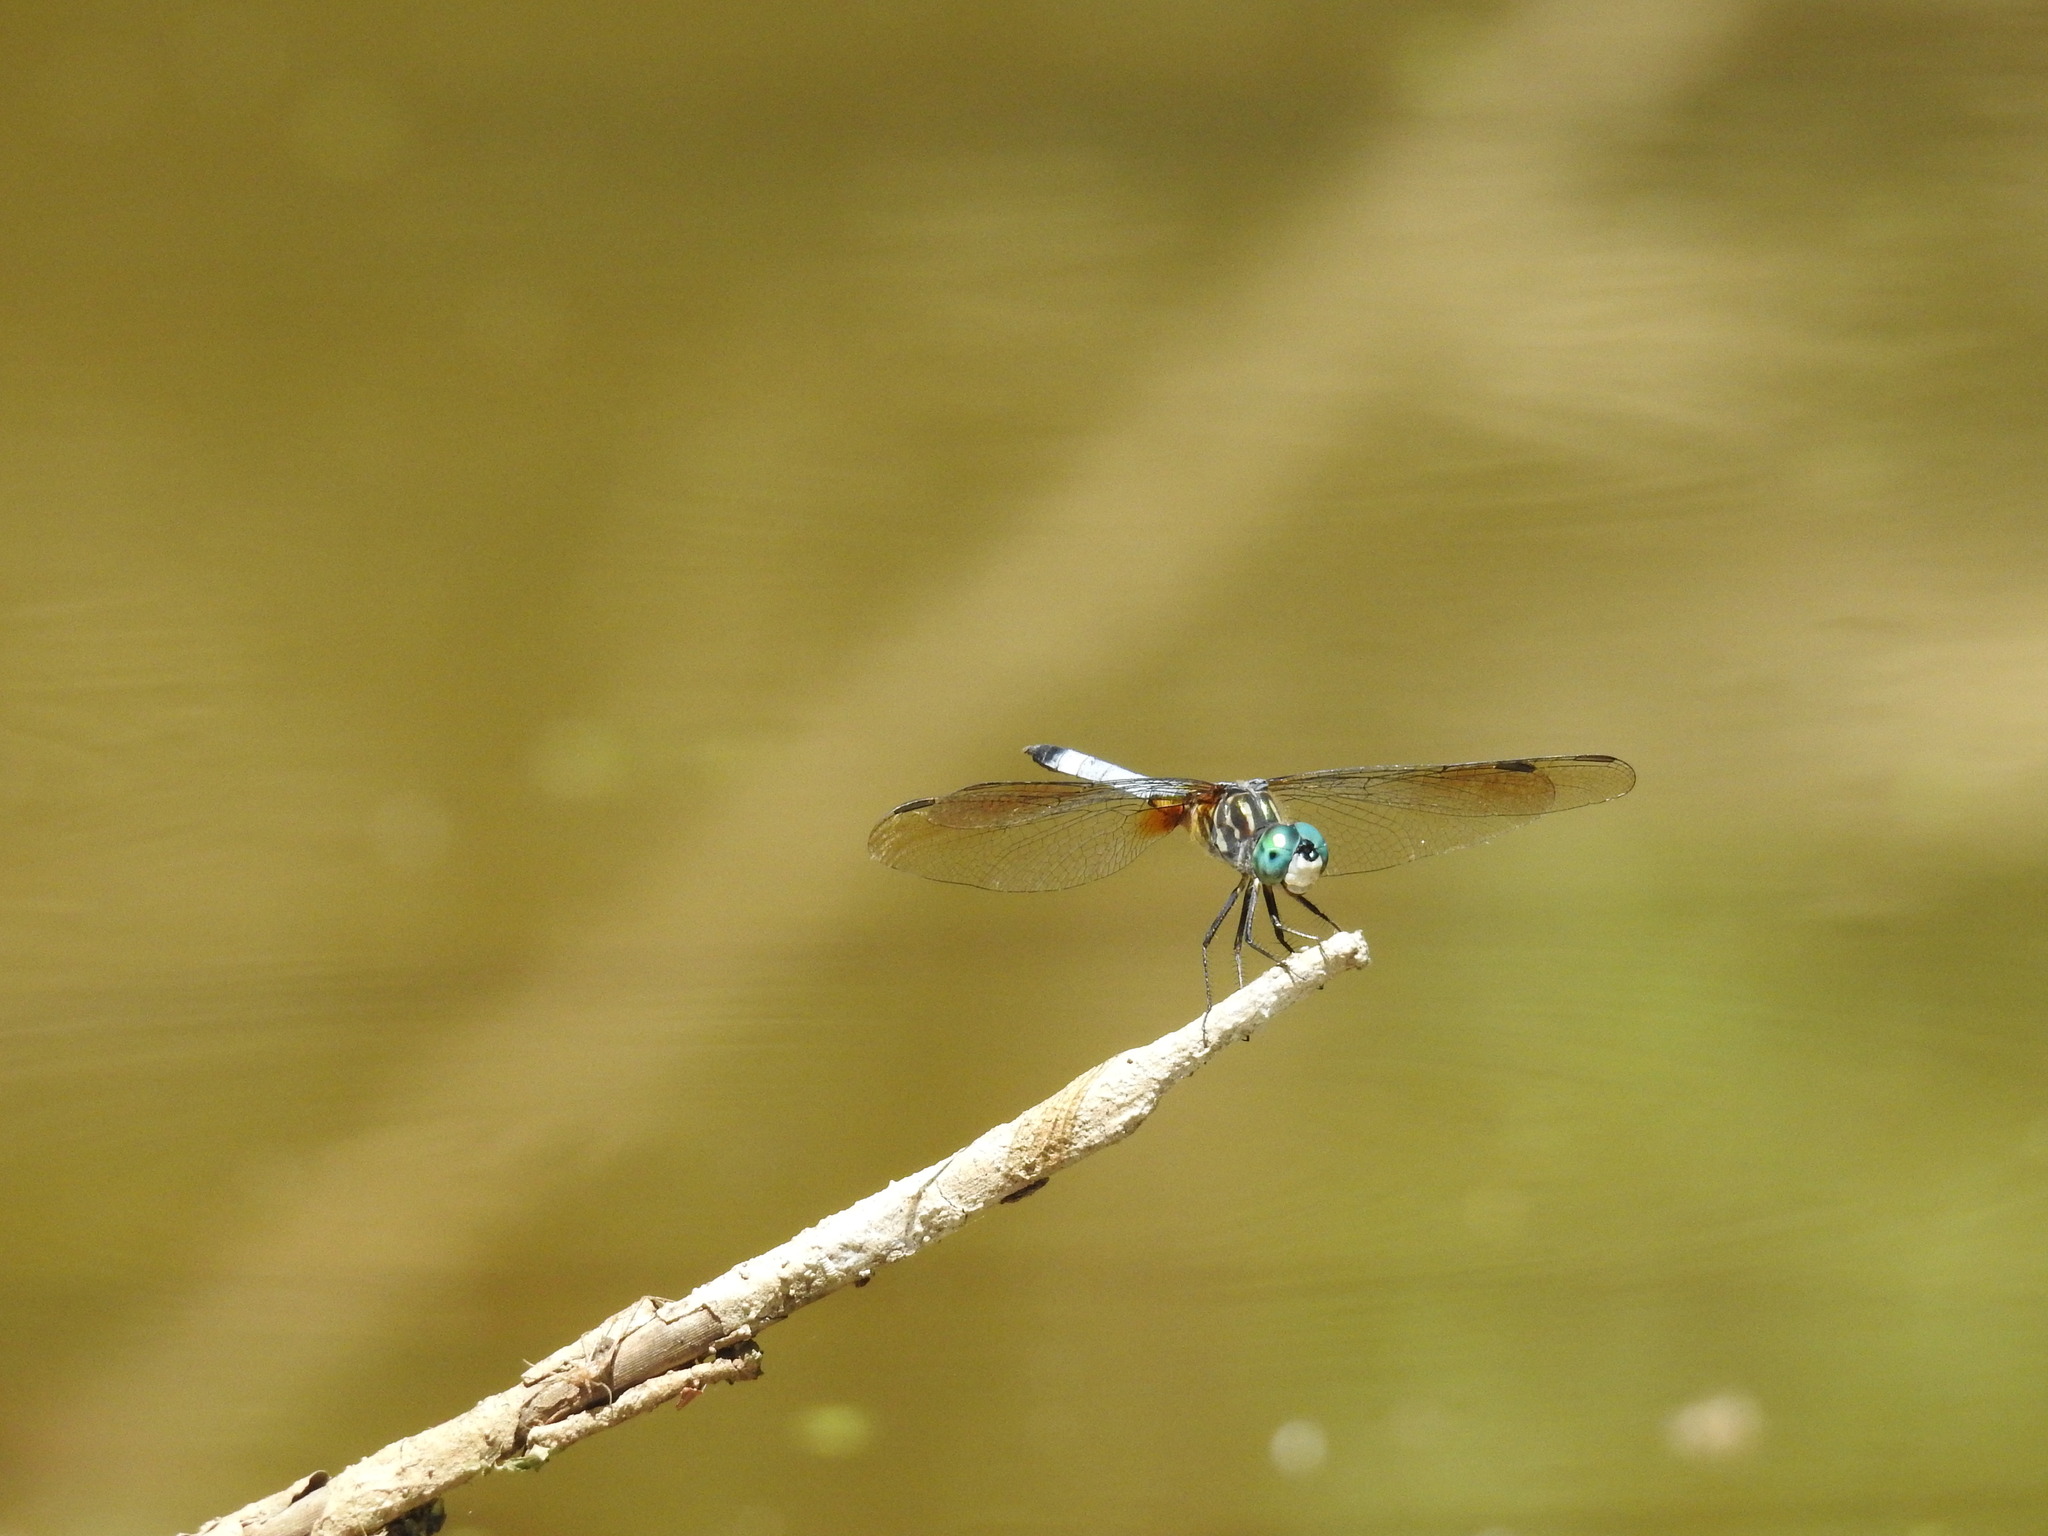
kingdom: Animalia
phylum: Arthropoda
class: Insecta
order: Odonata
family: Libellulidae
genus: Pachydiplax
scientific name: Pachydiplax longipennis
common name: Blue dasher
